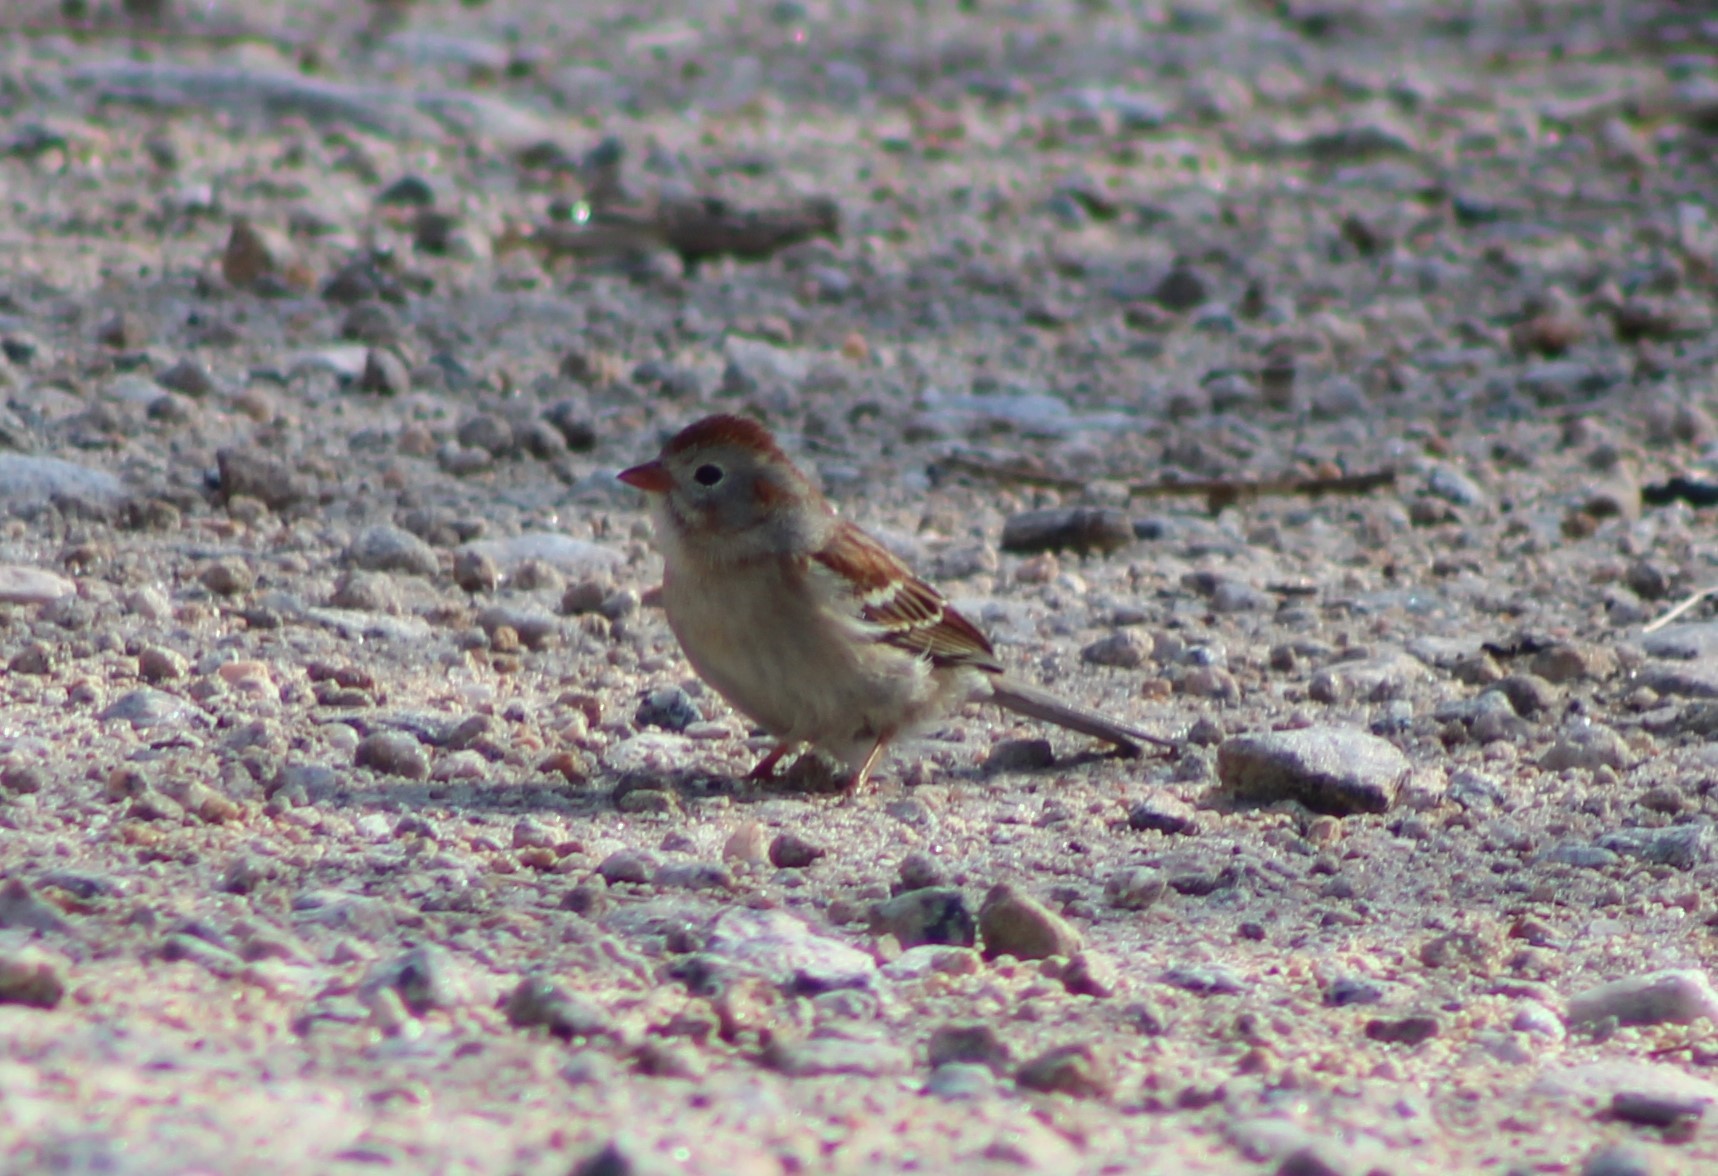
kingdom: Animalia
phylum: Chordata
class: Aves
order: Passeriformes
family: Passerellidae
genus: Spizella
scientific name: Spizella pusilla
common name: Field sparrow
